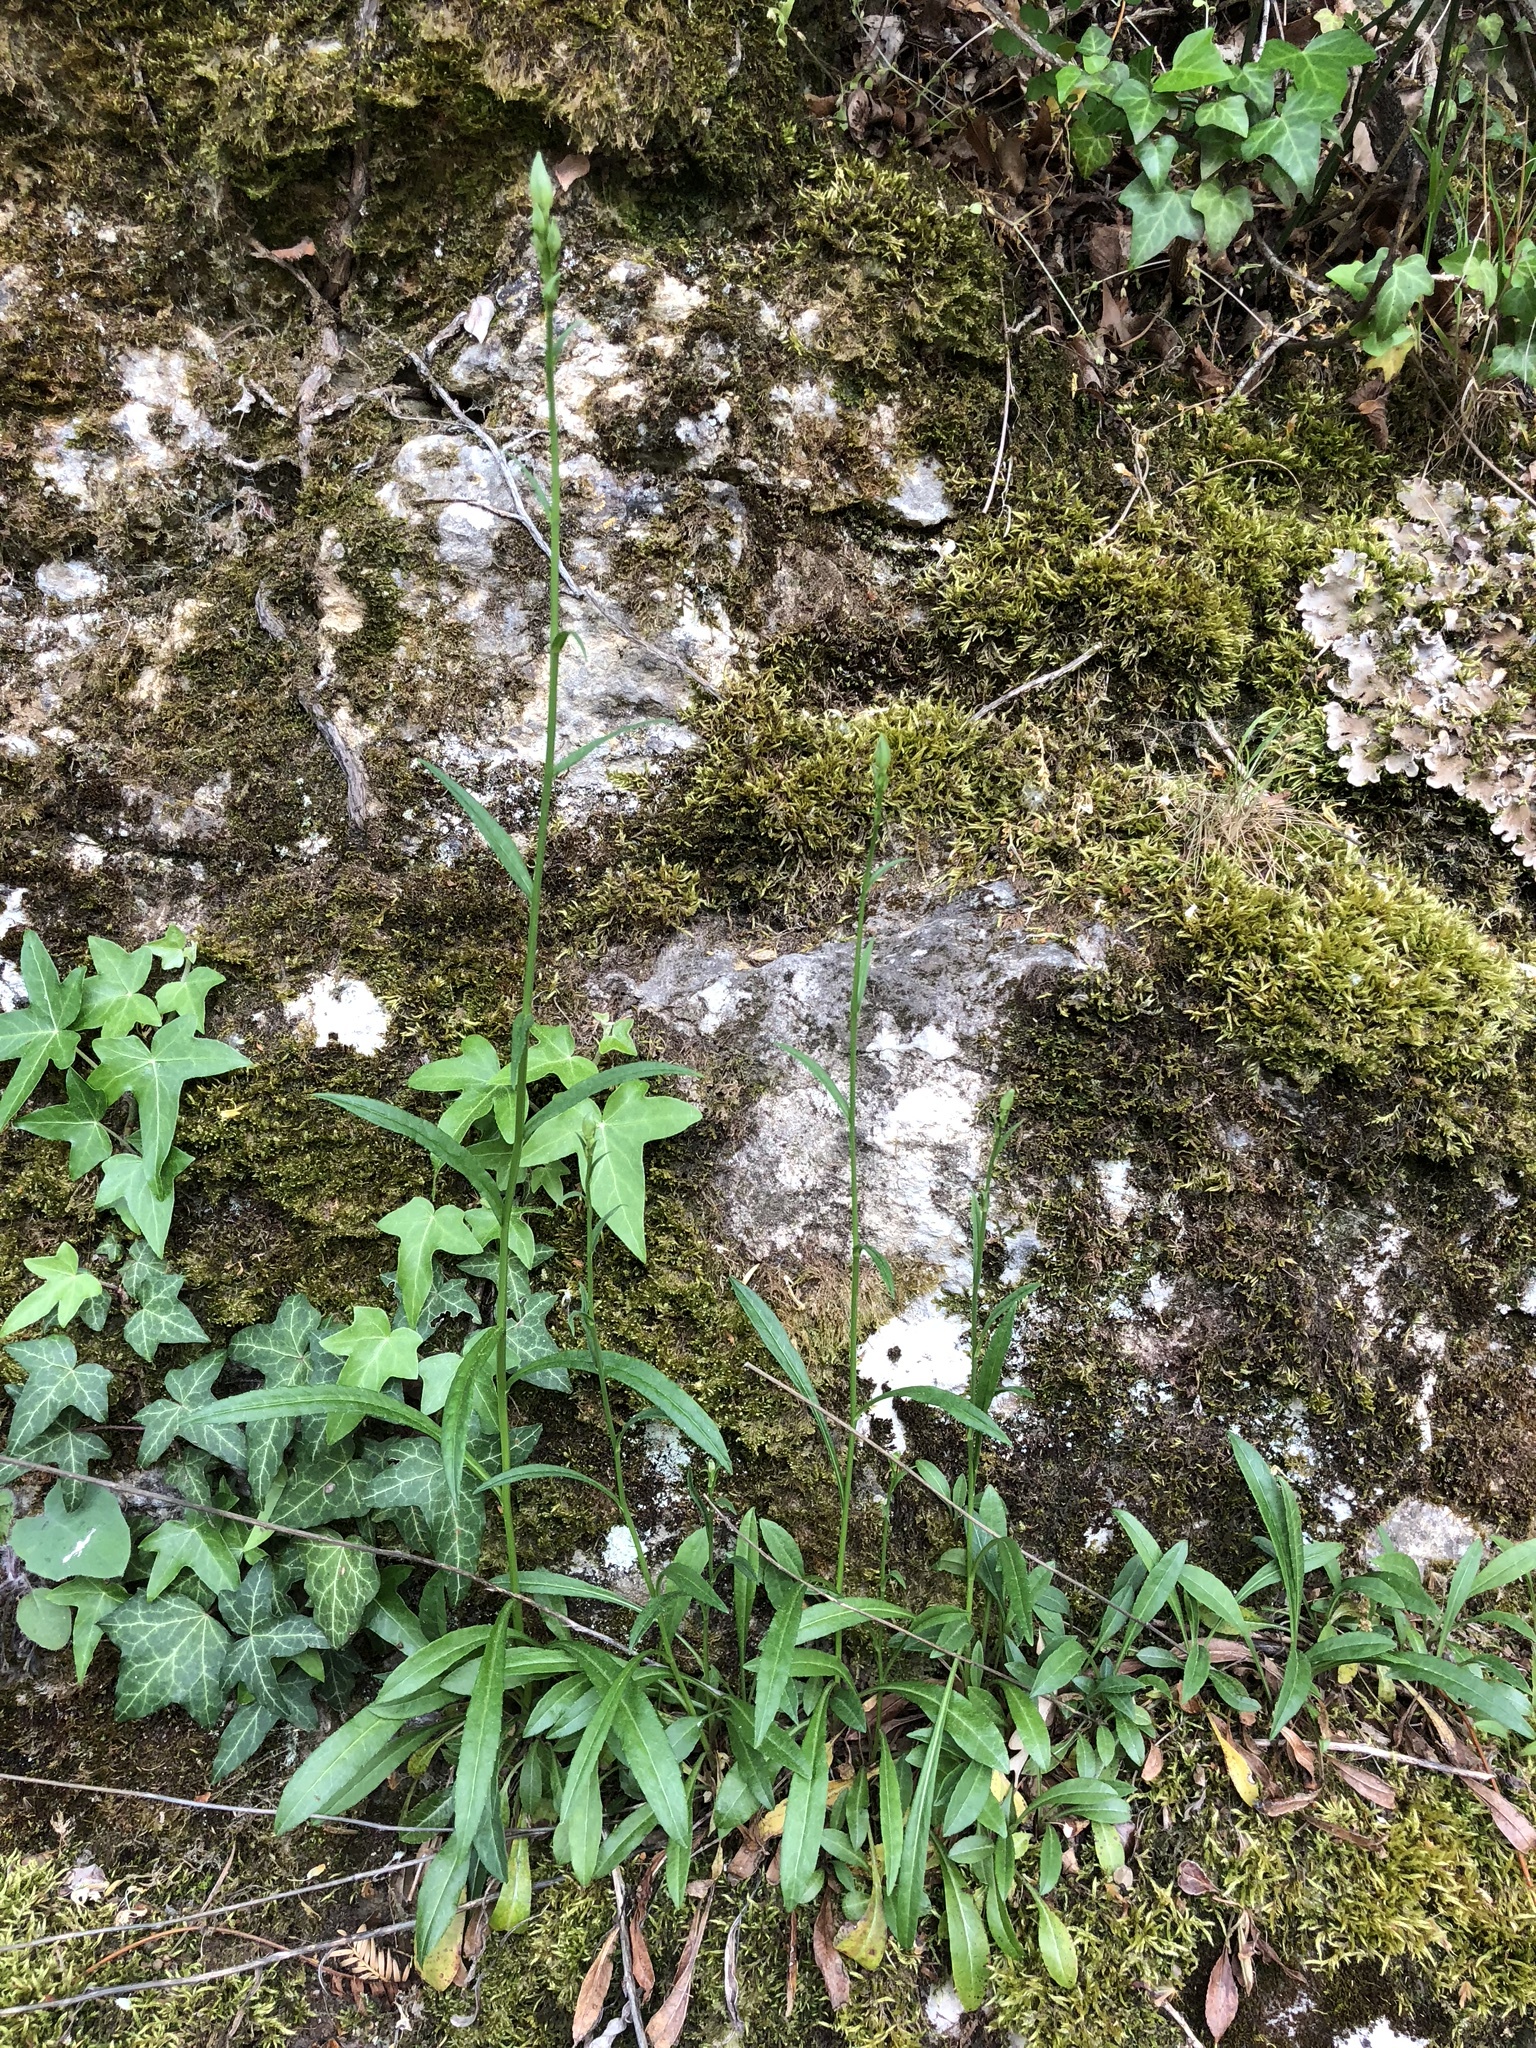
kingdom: Plantae
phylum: Tracheophyta
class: Magnoliopsida
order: Asterales
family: Campanulaceae
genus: Campanula
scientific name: Campanula persicifolia
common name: Peach-leaved bellflower
